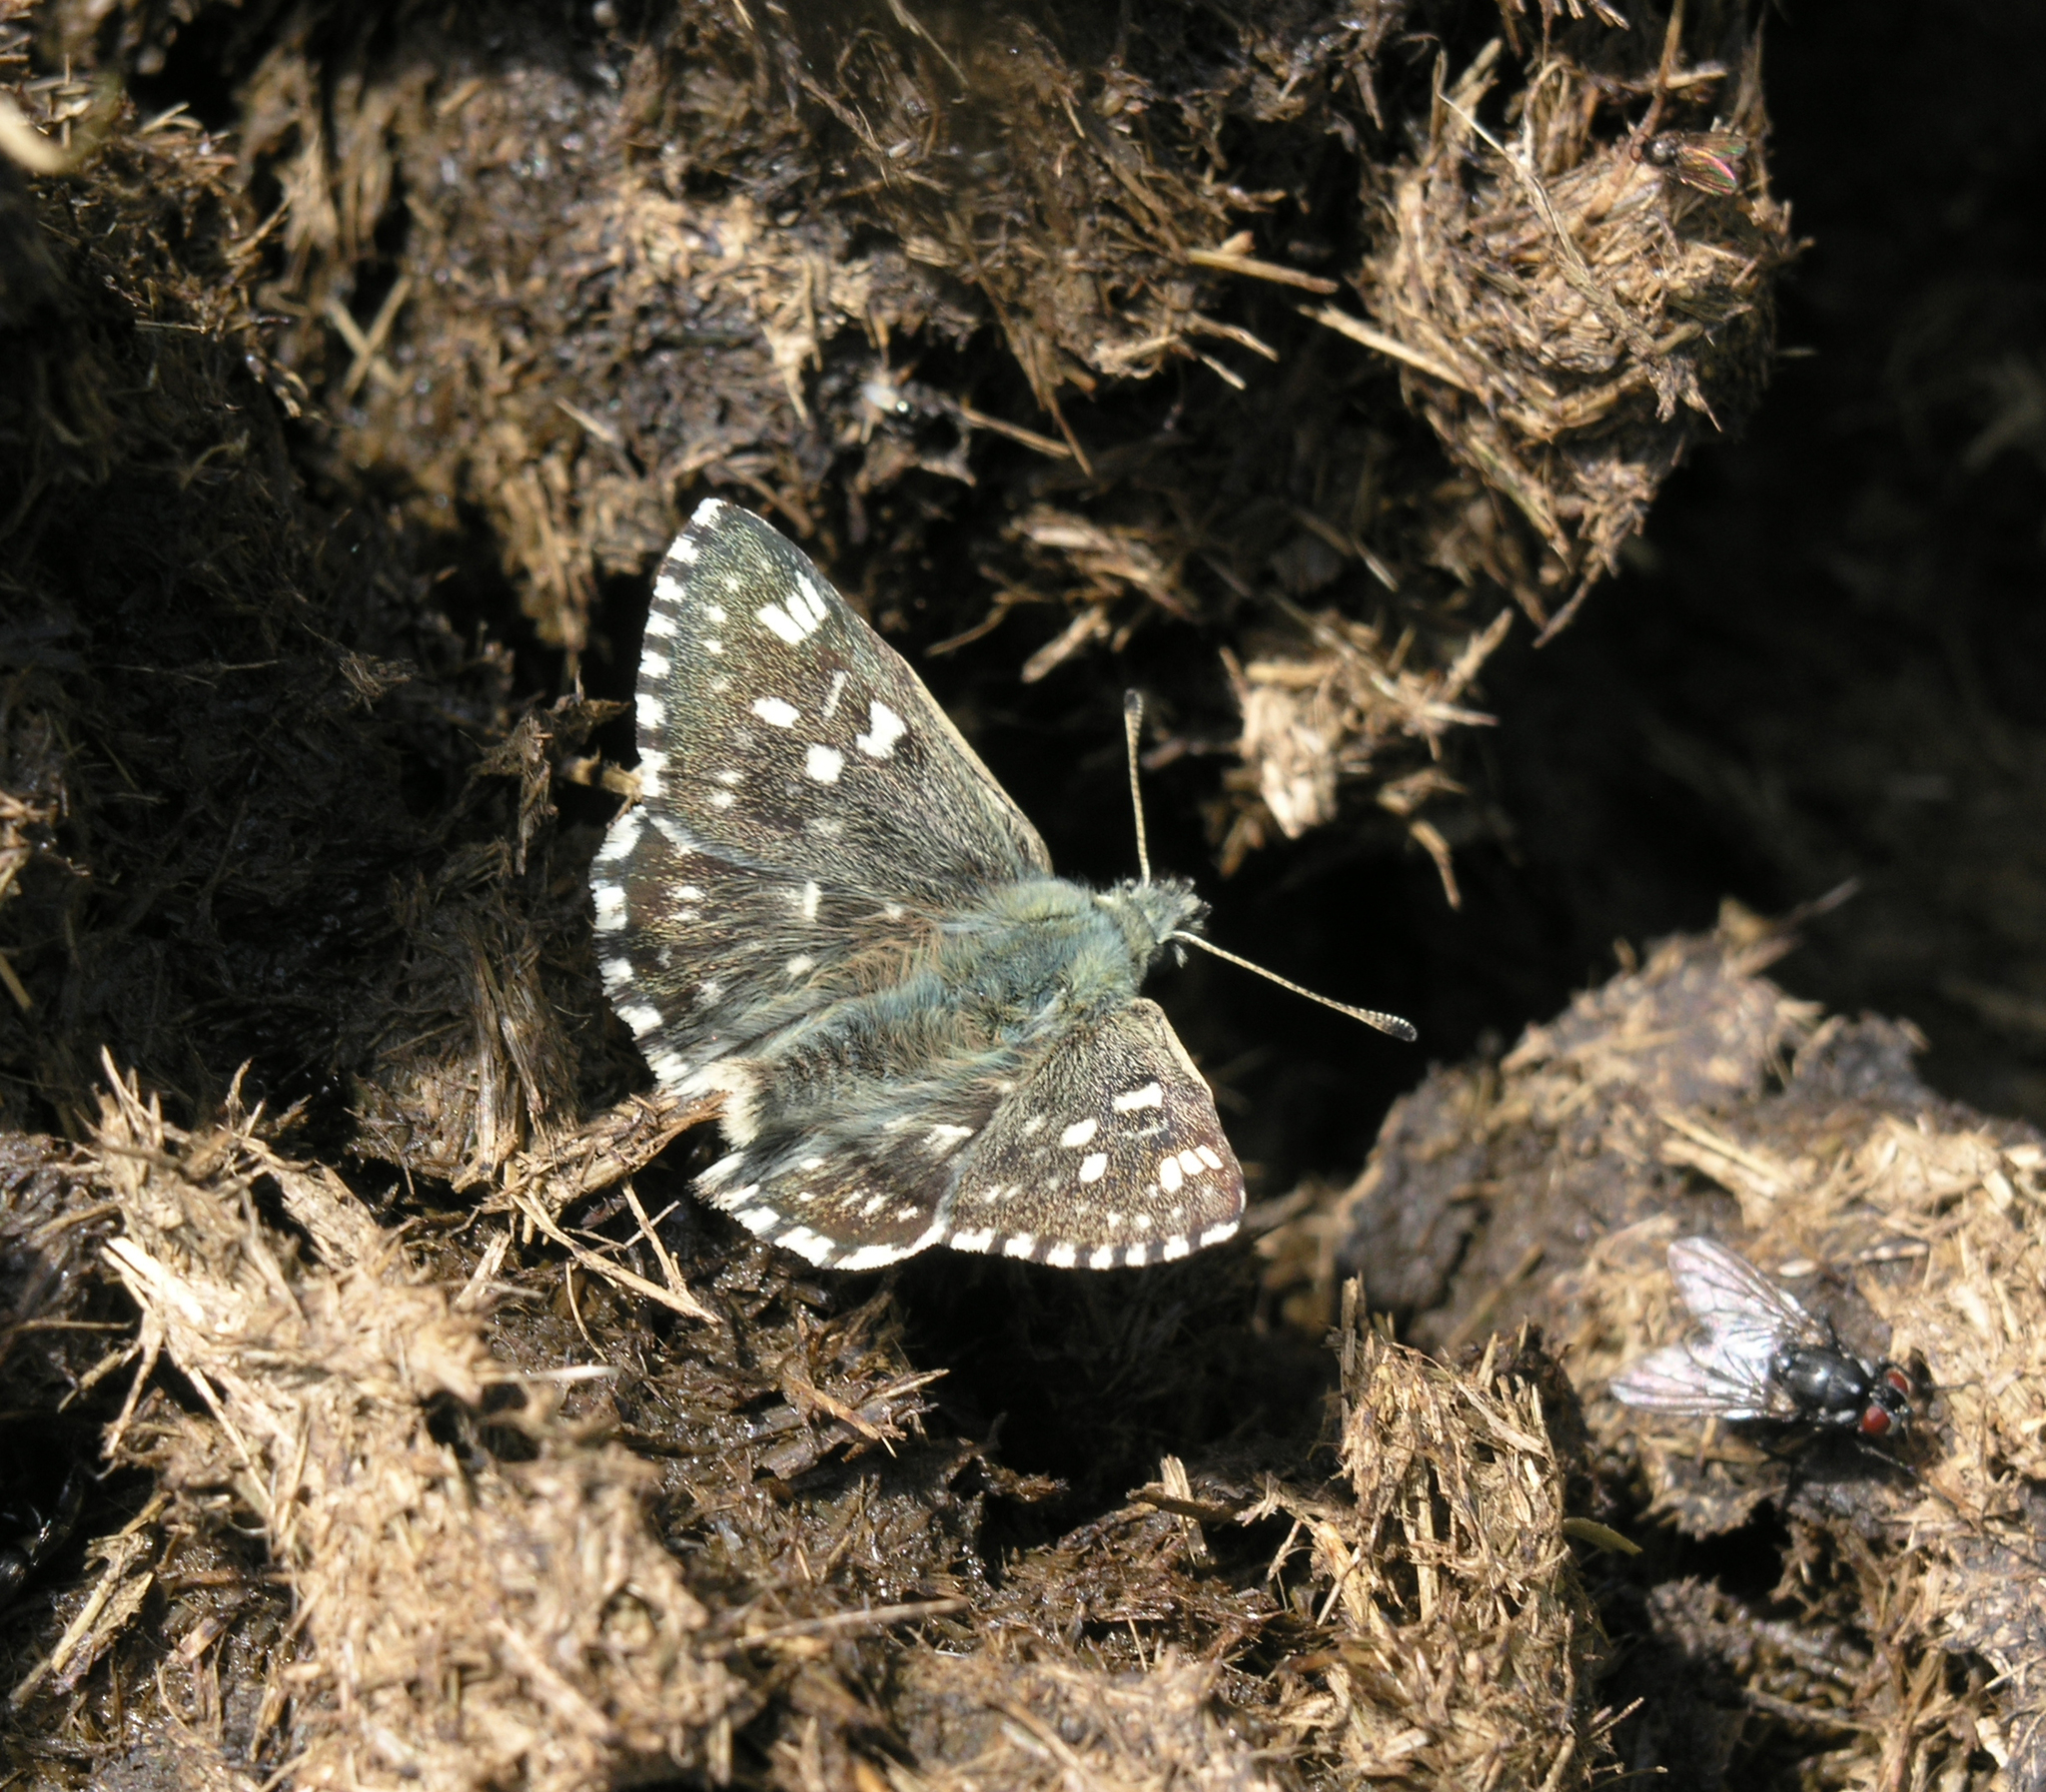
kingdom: Animalia
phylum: Arthropoda
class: Insecta
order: Lepidoptera
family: Hesperiidae
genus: Syrichtus
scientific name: Syrichtus tessellum
